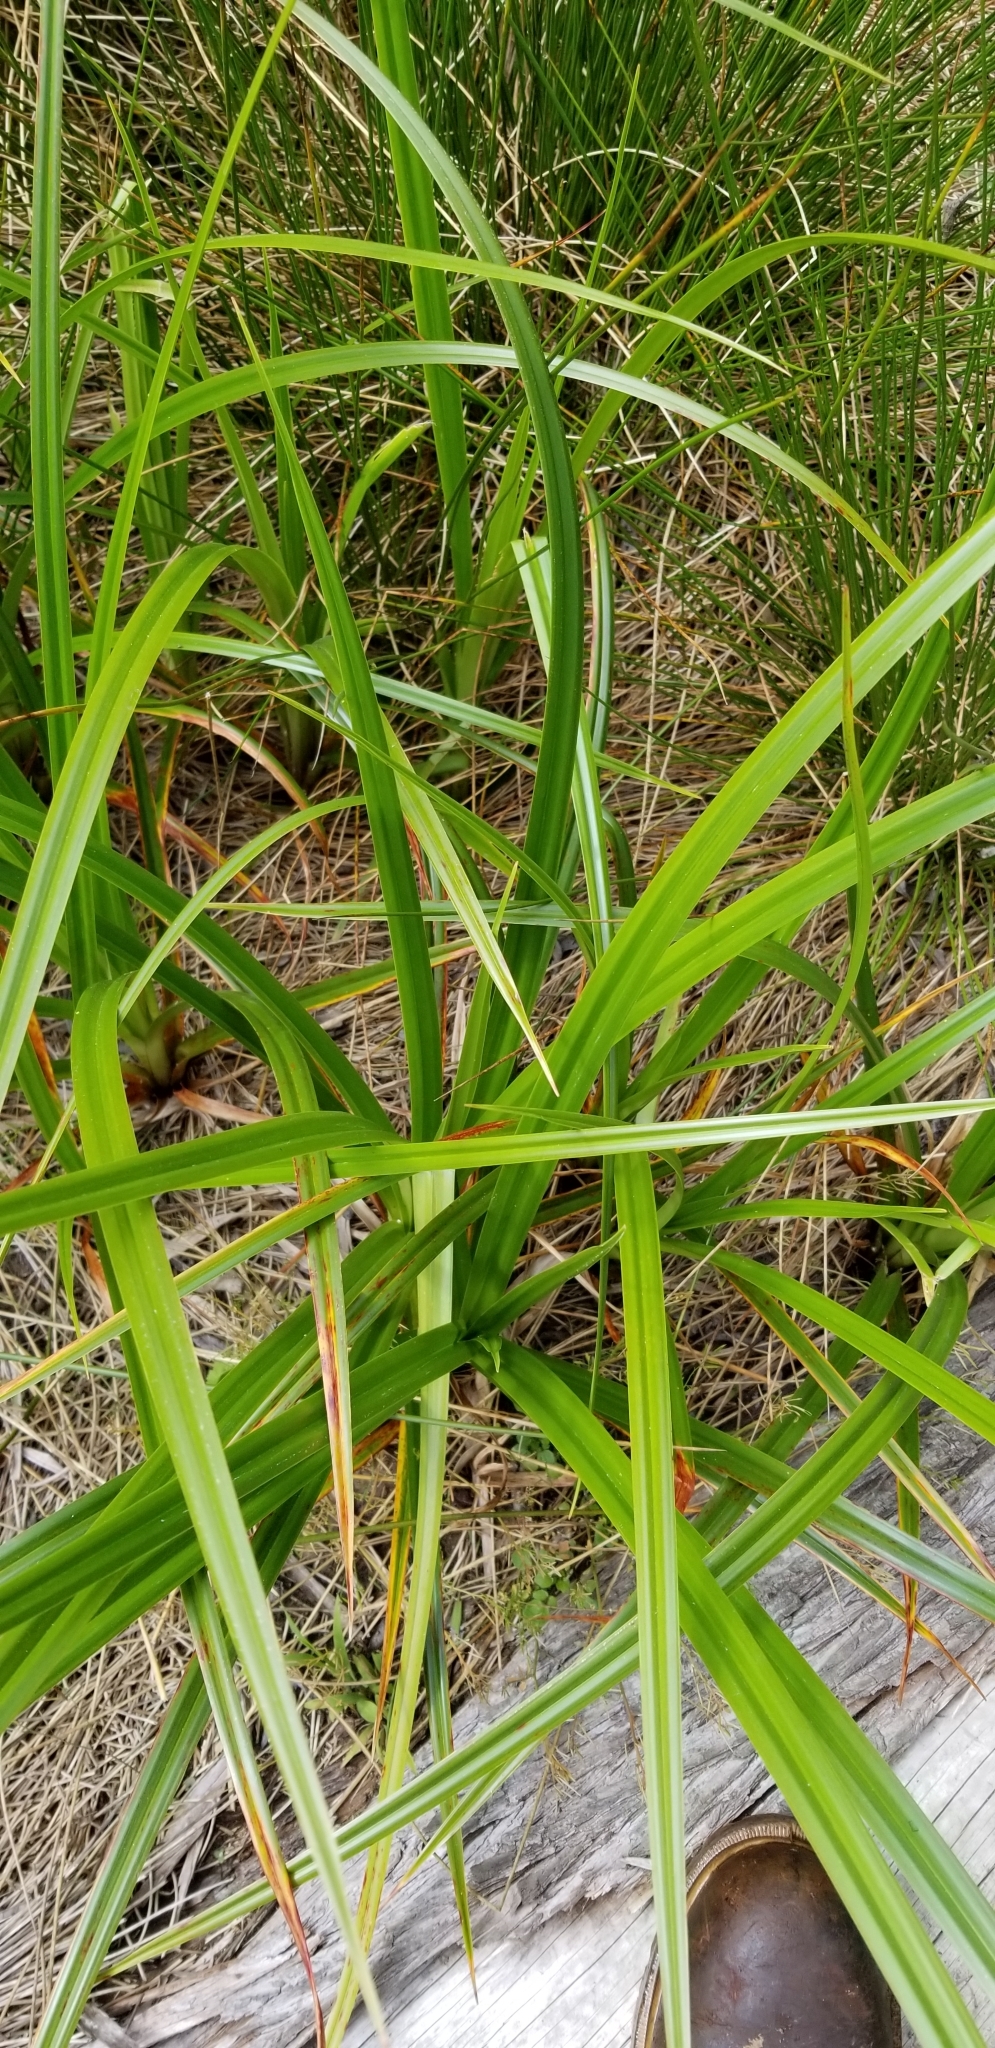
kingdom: Plantae
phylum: Tracheophyta
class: Liliopsida
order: Poales
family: Cyperaceae
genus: Scirpus
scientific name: Scirpus microcarpus
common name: Panicled bulrush
